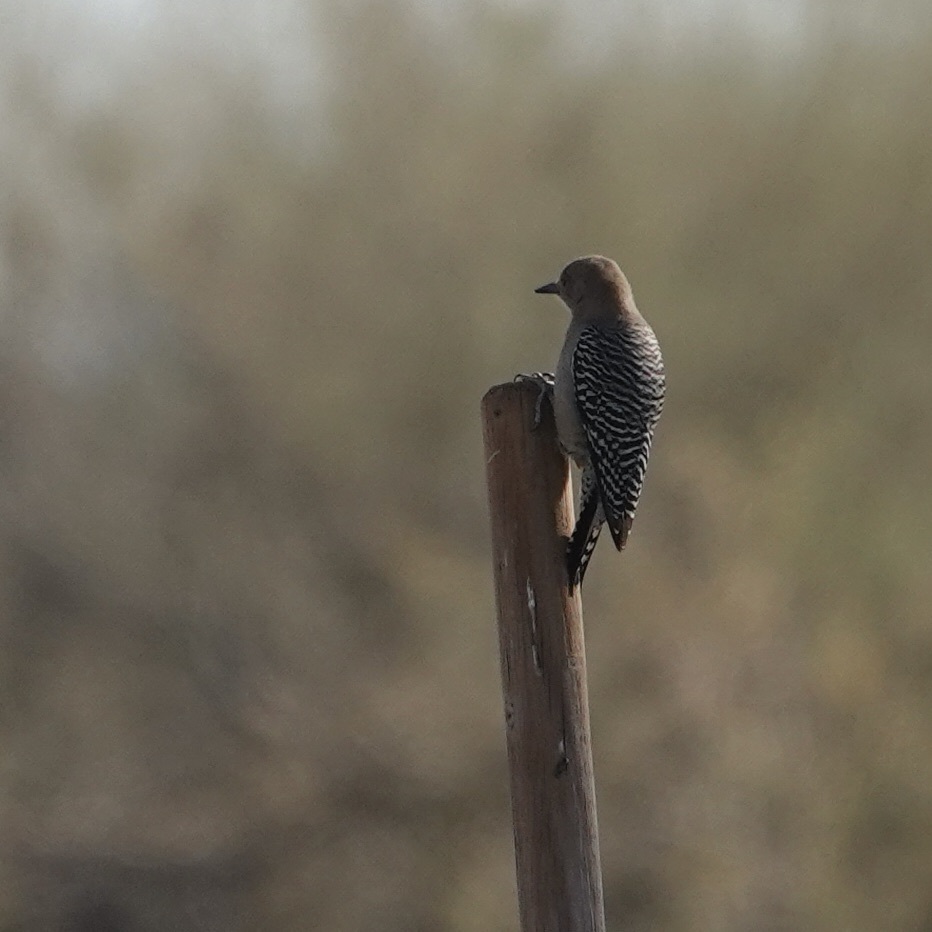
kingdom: Animalia
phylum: Chordata
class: Aves
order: Piciformes
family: Picidae
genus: Melanerpes
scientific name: Melanerpes uropygialis
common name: Gila woodpecker
